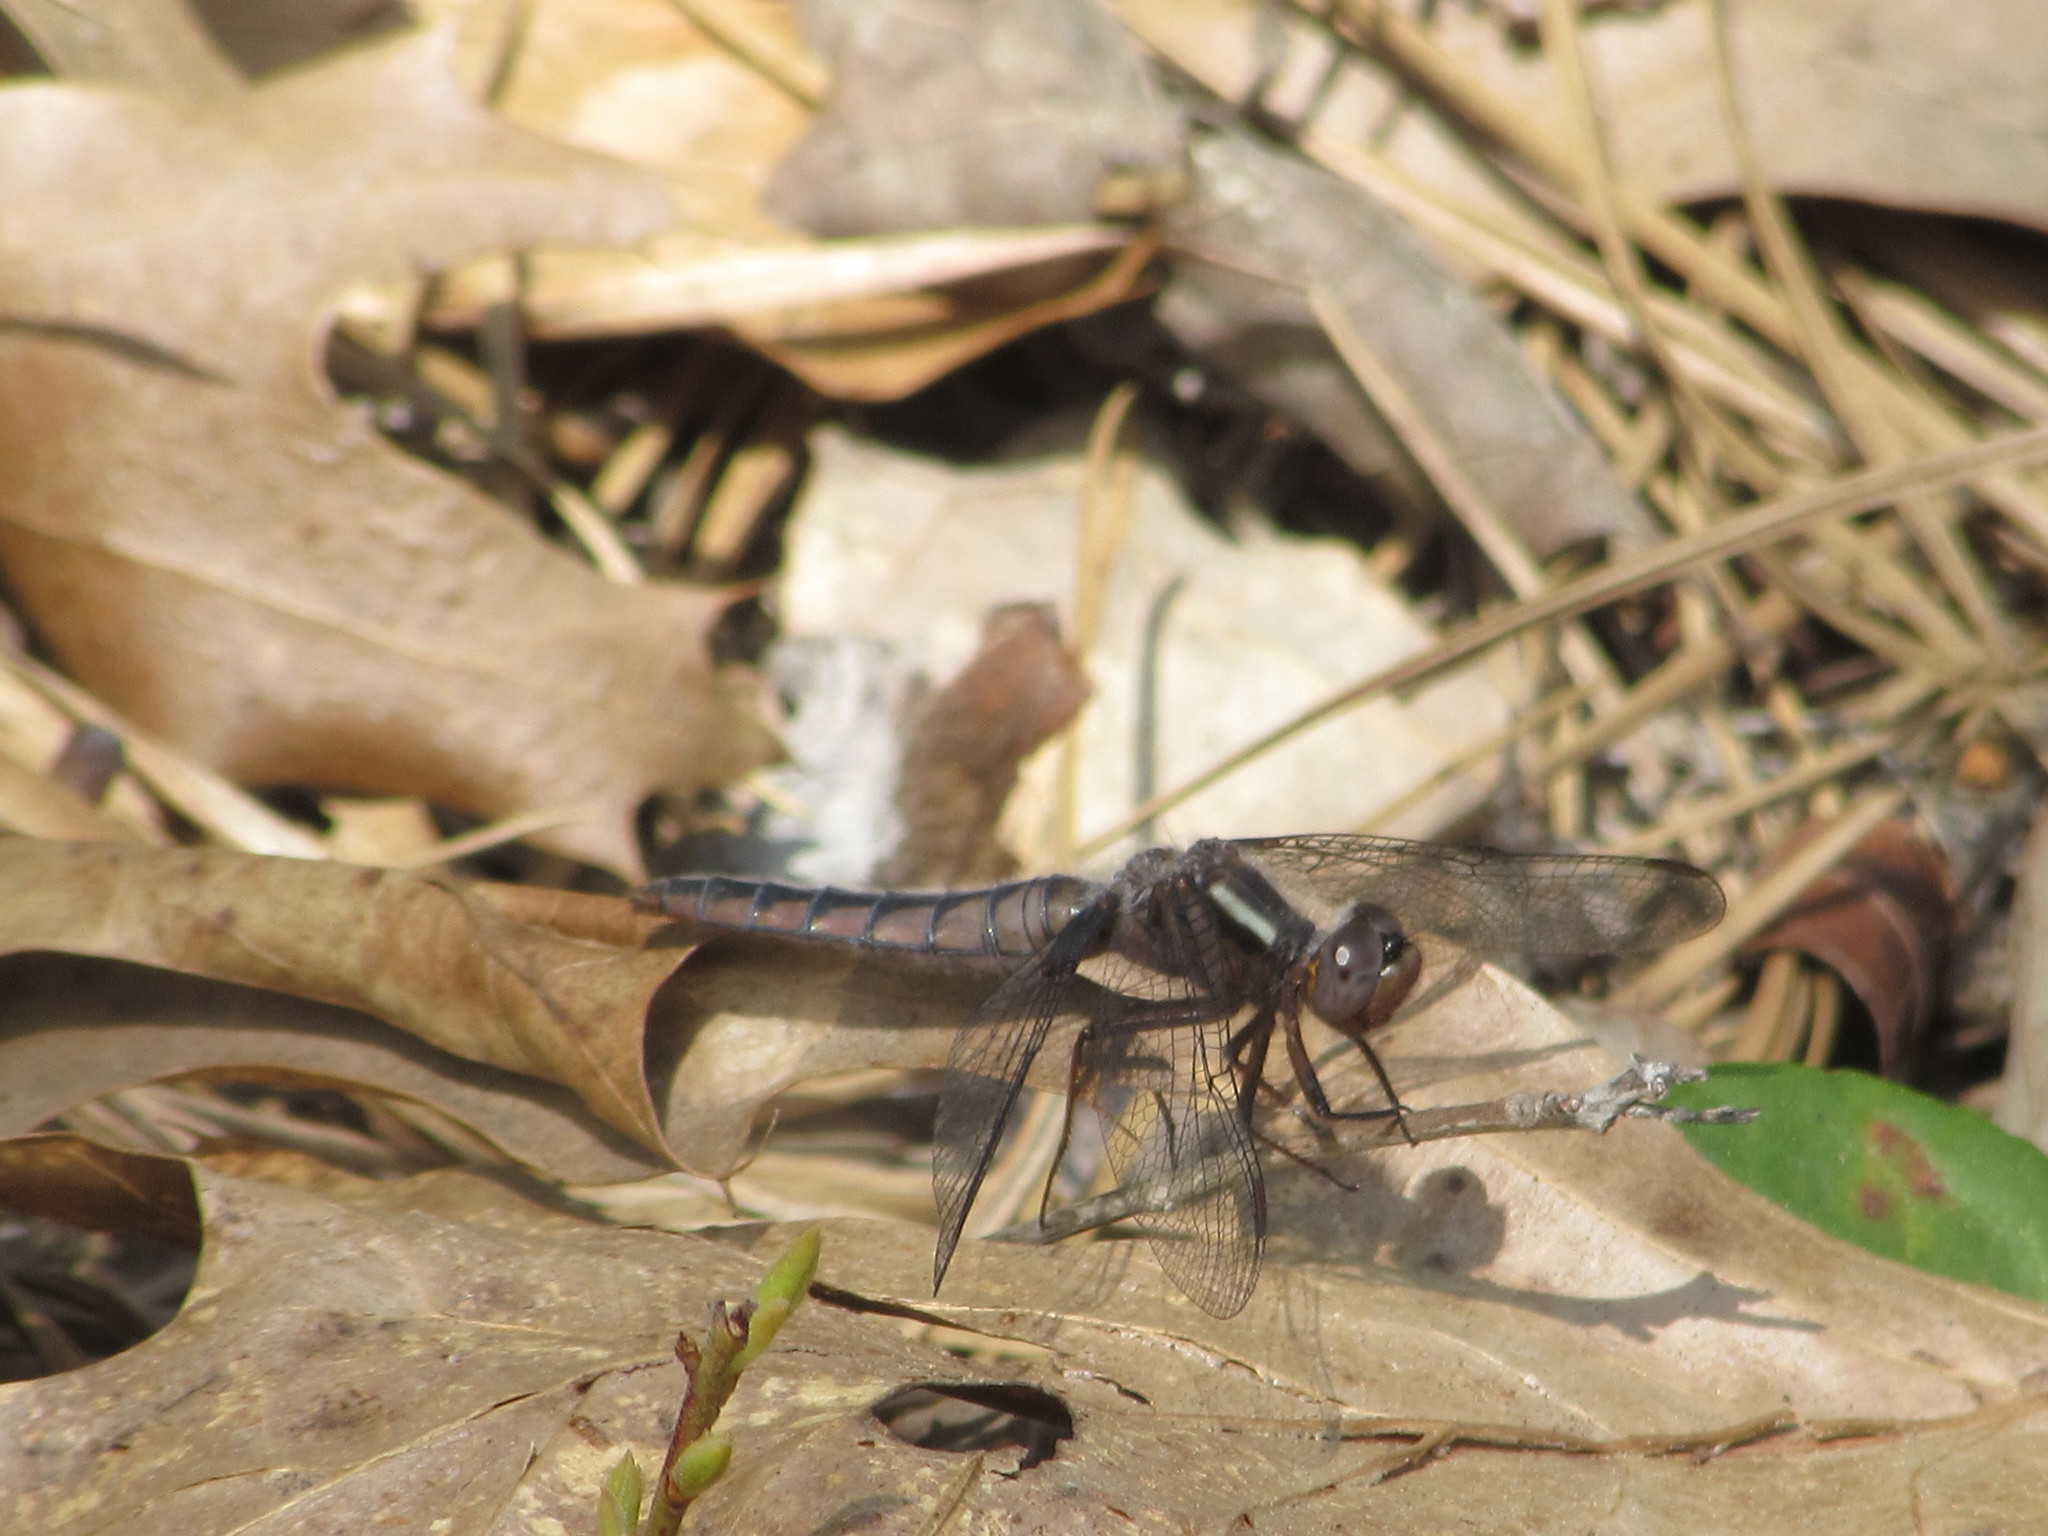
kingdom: Animalia
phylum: Arthropoda
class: Insecta
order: Odonata
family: Libellulidae
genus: Ladona
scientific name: Ladona deplanata
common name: Blue corporal
